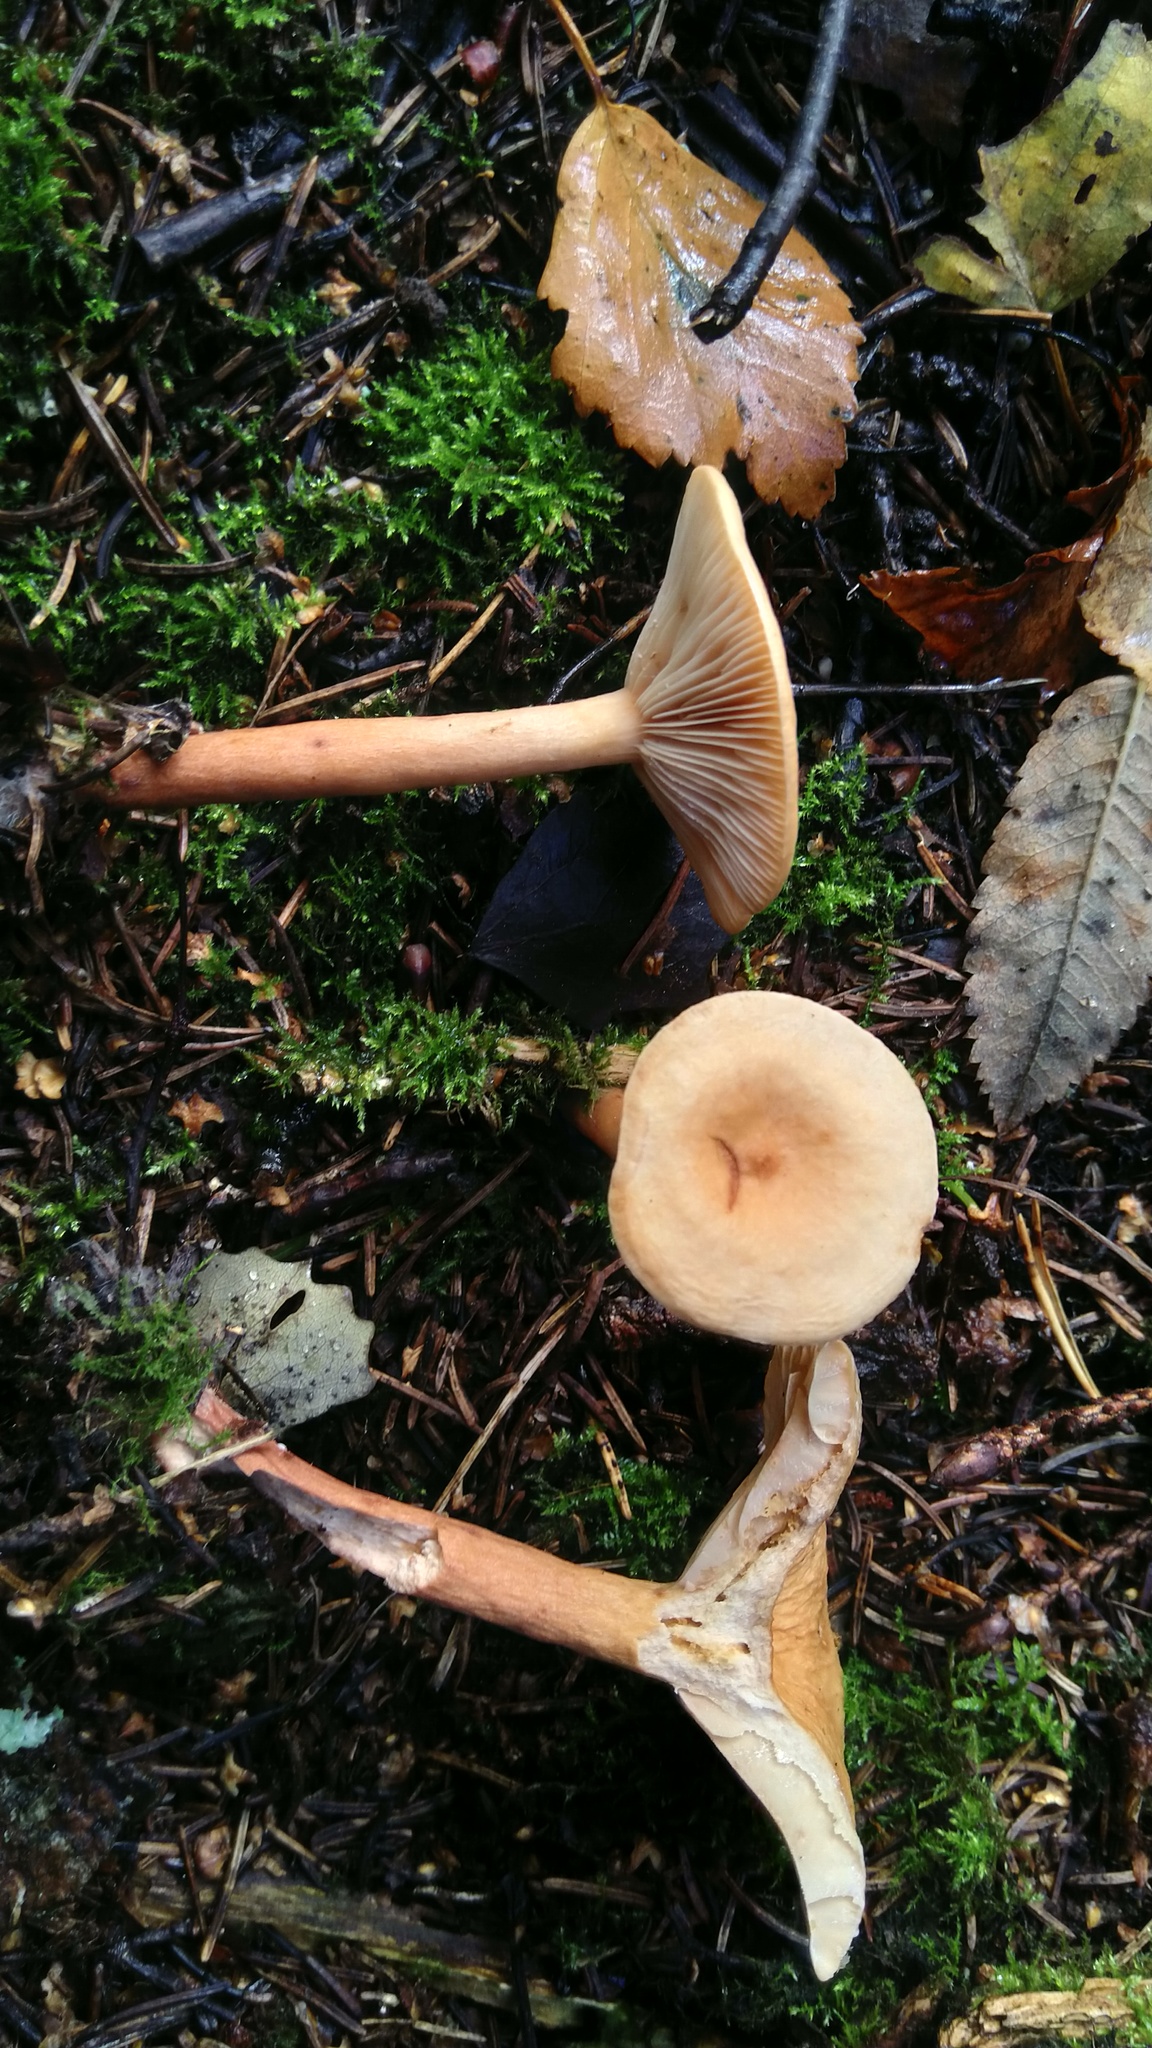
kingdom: Fungi
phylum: Basidiomycota
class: Agaricomycetes
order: Russulales
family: Russulaceae
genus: Lactarius
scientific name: Lactarius tabidus
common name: Birch milkcap
